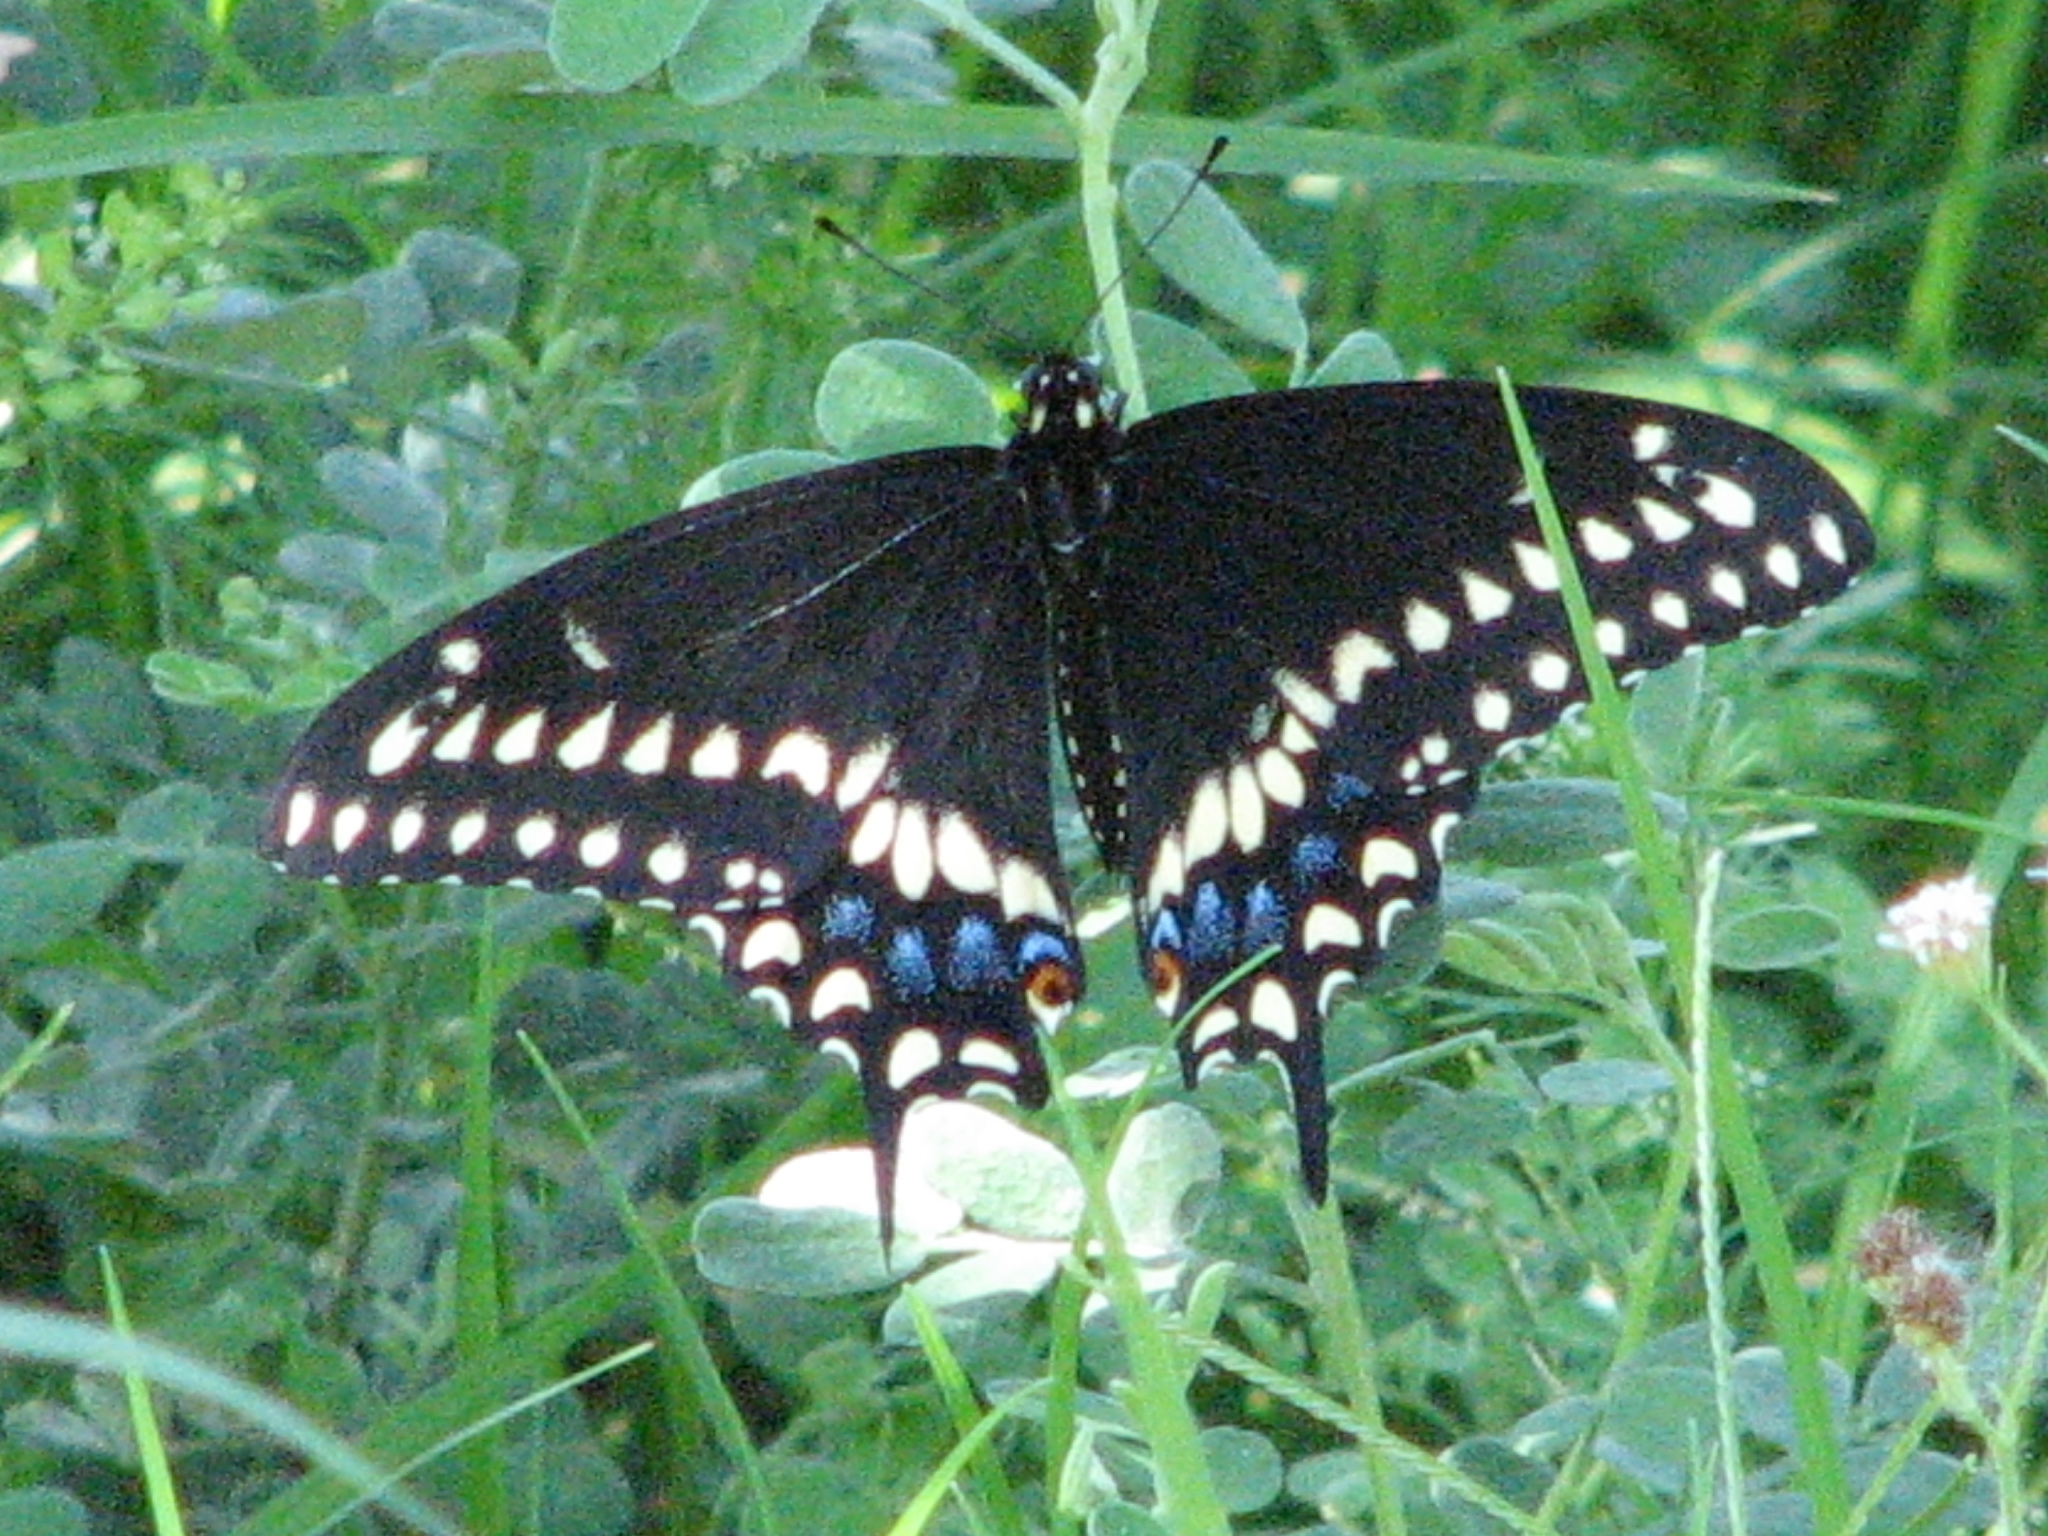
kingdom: Animalia
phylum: Arthropoda
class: Insecta
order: Lepidoptera
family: Papilionidae
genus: Papilio
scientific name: Papilio polyxenes
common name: Black swallowtail
